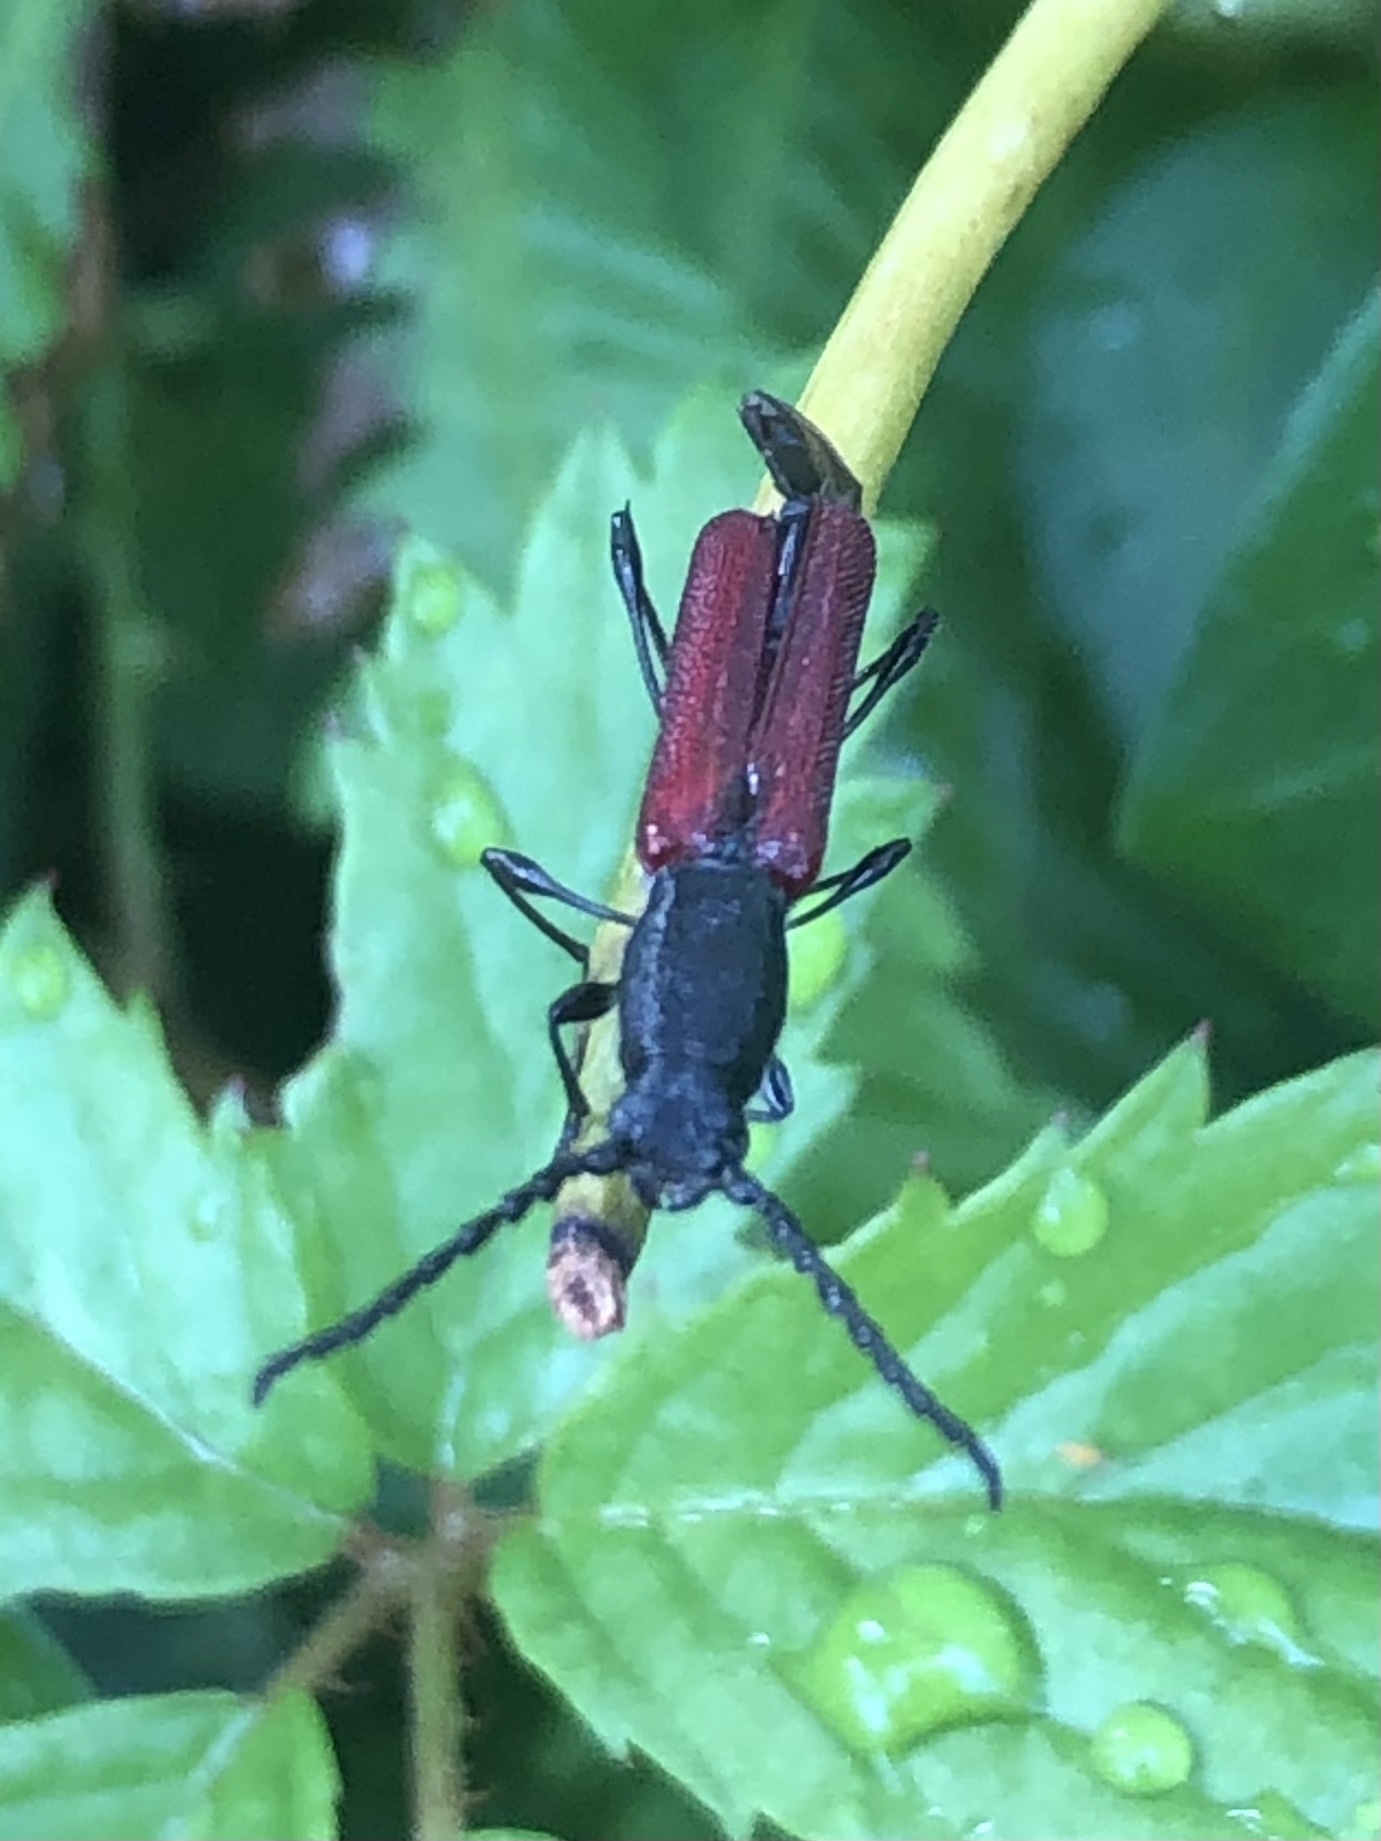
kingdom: Animalia
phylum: Arthropoda
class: Insecta
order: Coleoptera
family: Cerambycidae
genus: Ancylocera
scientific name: Ancylocera bicolor
